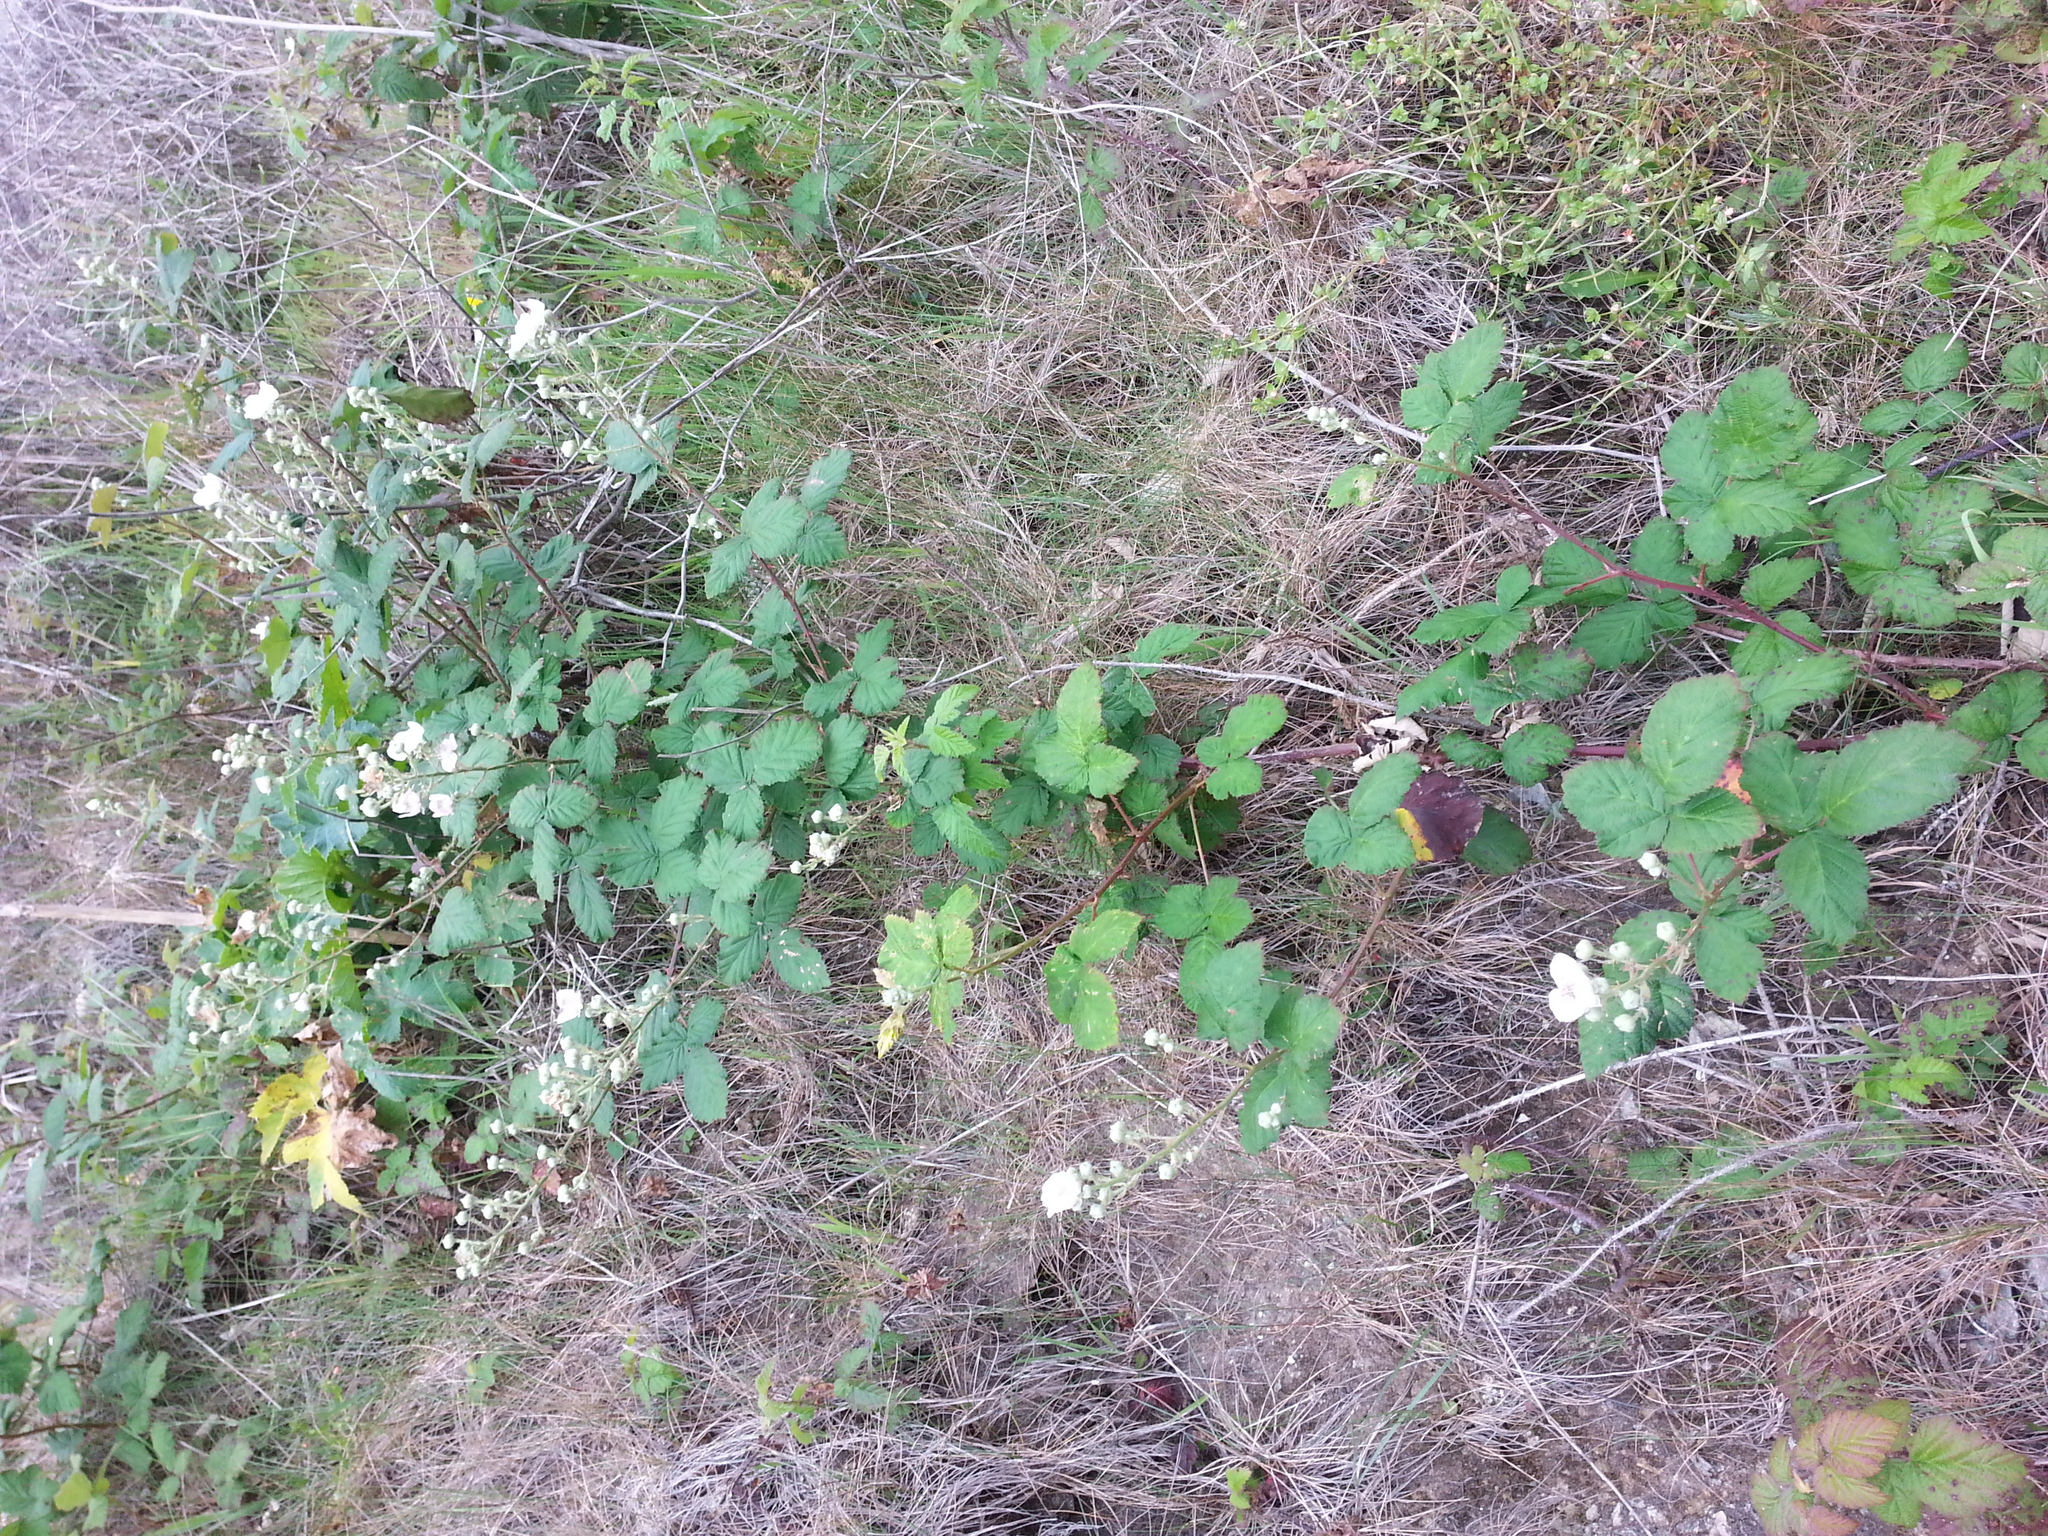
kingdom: Plantae
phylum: Tracheophyta
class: Magnoliopsida
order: Rosales
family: Rosaceae
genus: Rubus
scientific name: Rubus armeniacus
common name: Himalayan blackberry
